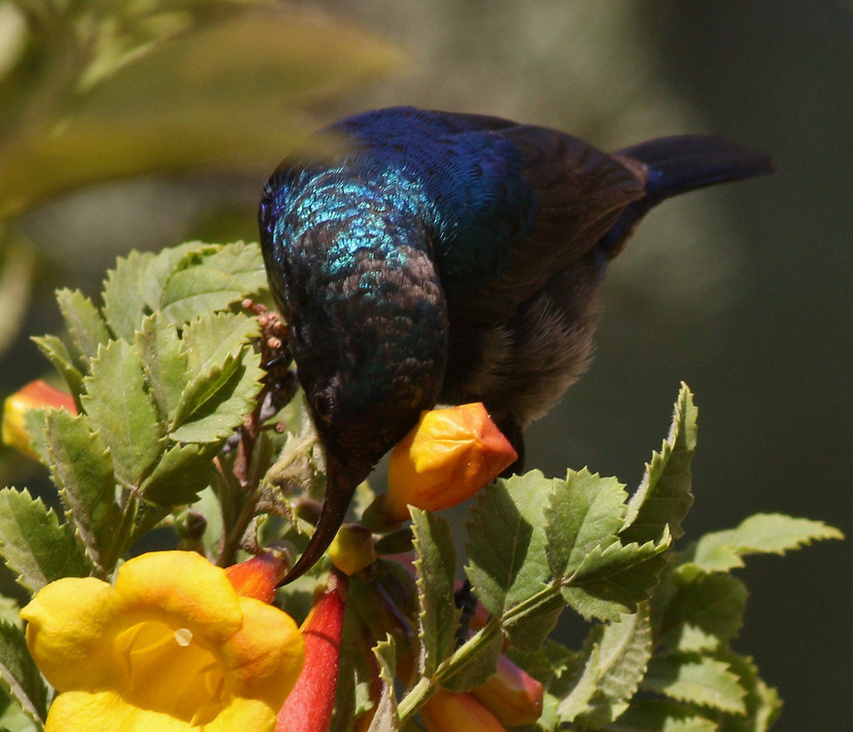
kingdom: Animalia
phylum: Chordata
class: Aves
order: Passeriformes
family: Nectariniidae
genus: Cinnyris
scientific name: Cinnyris osea
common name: Palestine sunbird
